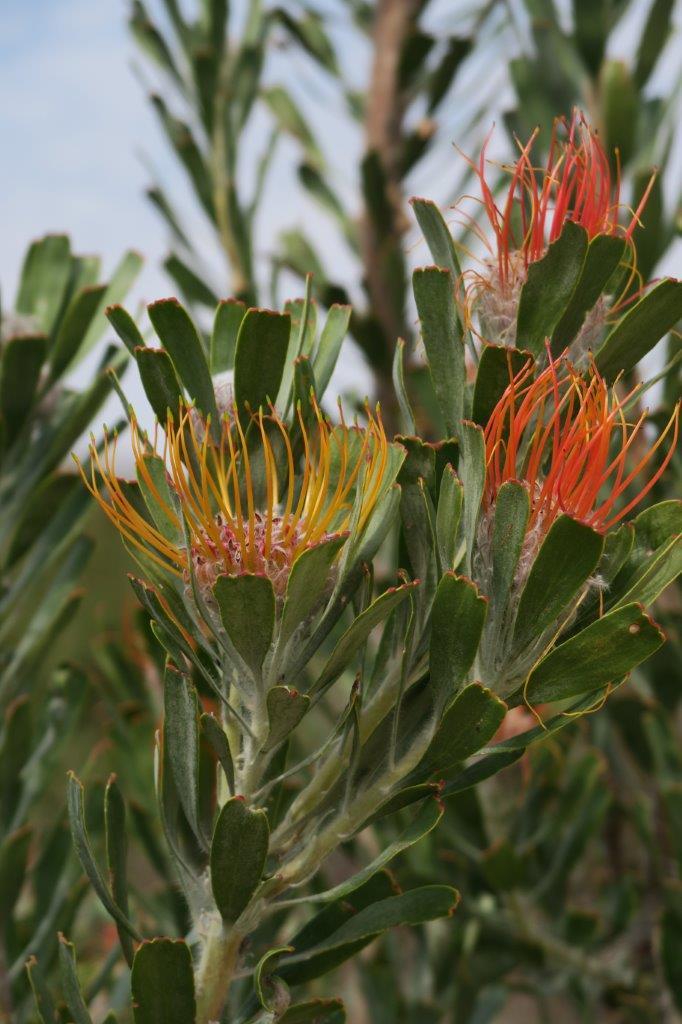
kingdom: Plantae
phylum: Tracheophyta
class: Magnoliopsida
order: Proteales
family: Proteaceae
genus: Leucospermum
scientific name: Leucospermum praemorsum
